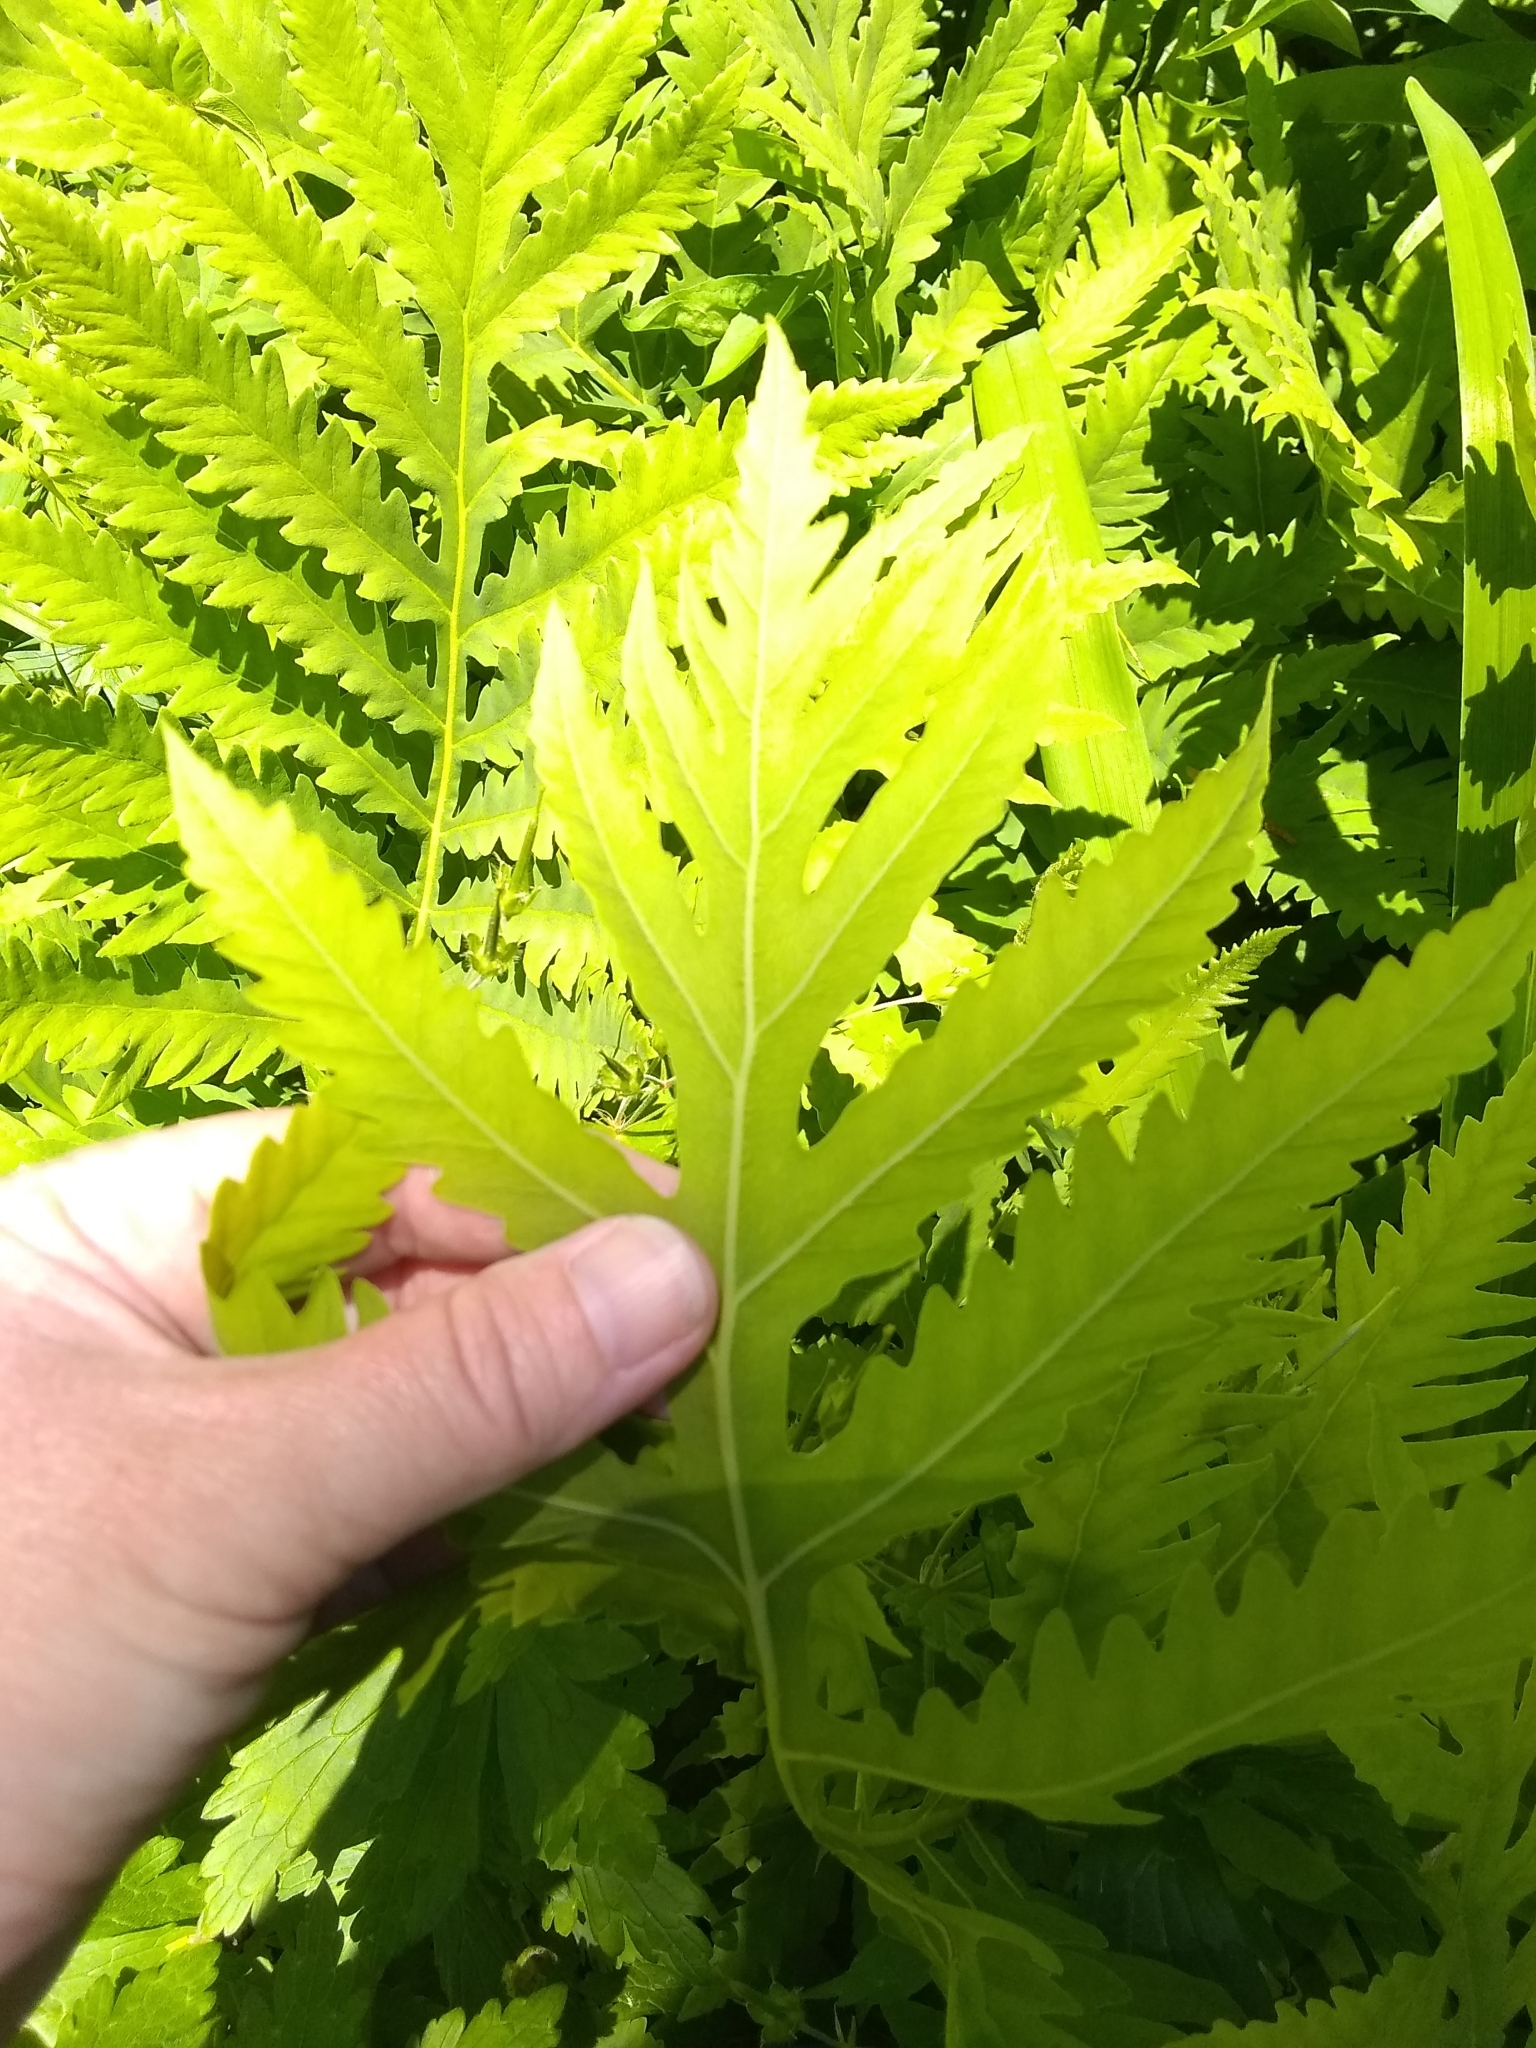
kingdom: Plantae
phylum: Tracheophyta
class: Polypodiopsida
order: Polypodiales
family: Onocleaceae
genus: Onoclea
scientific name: Onoclea sensibilis
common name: Sensitive fern
